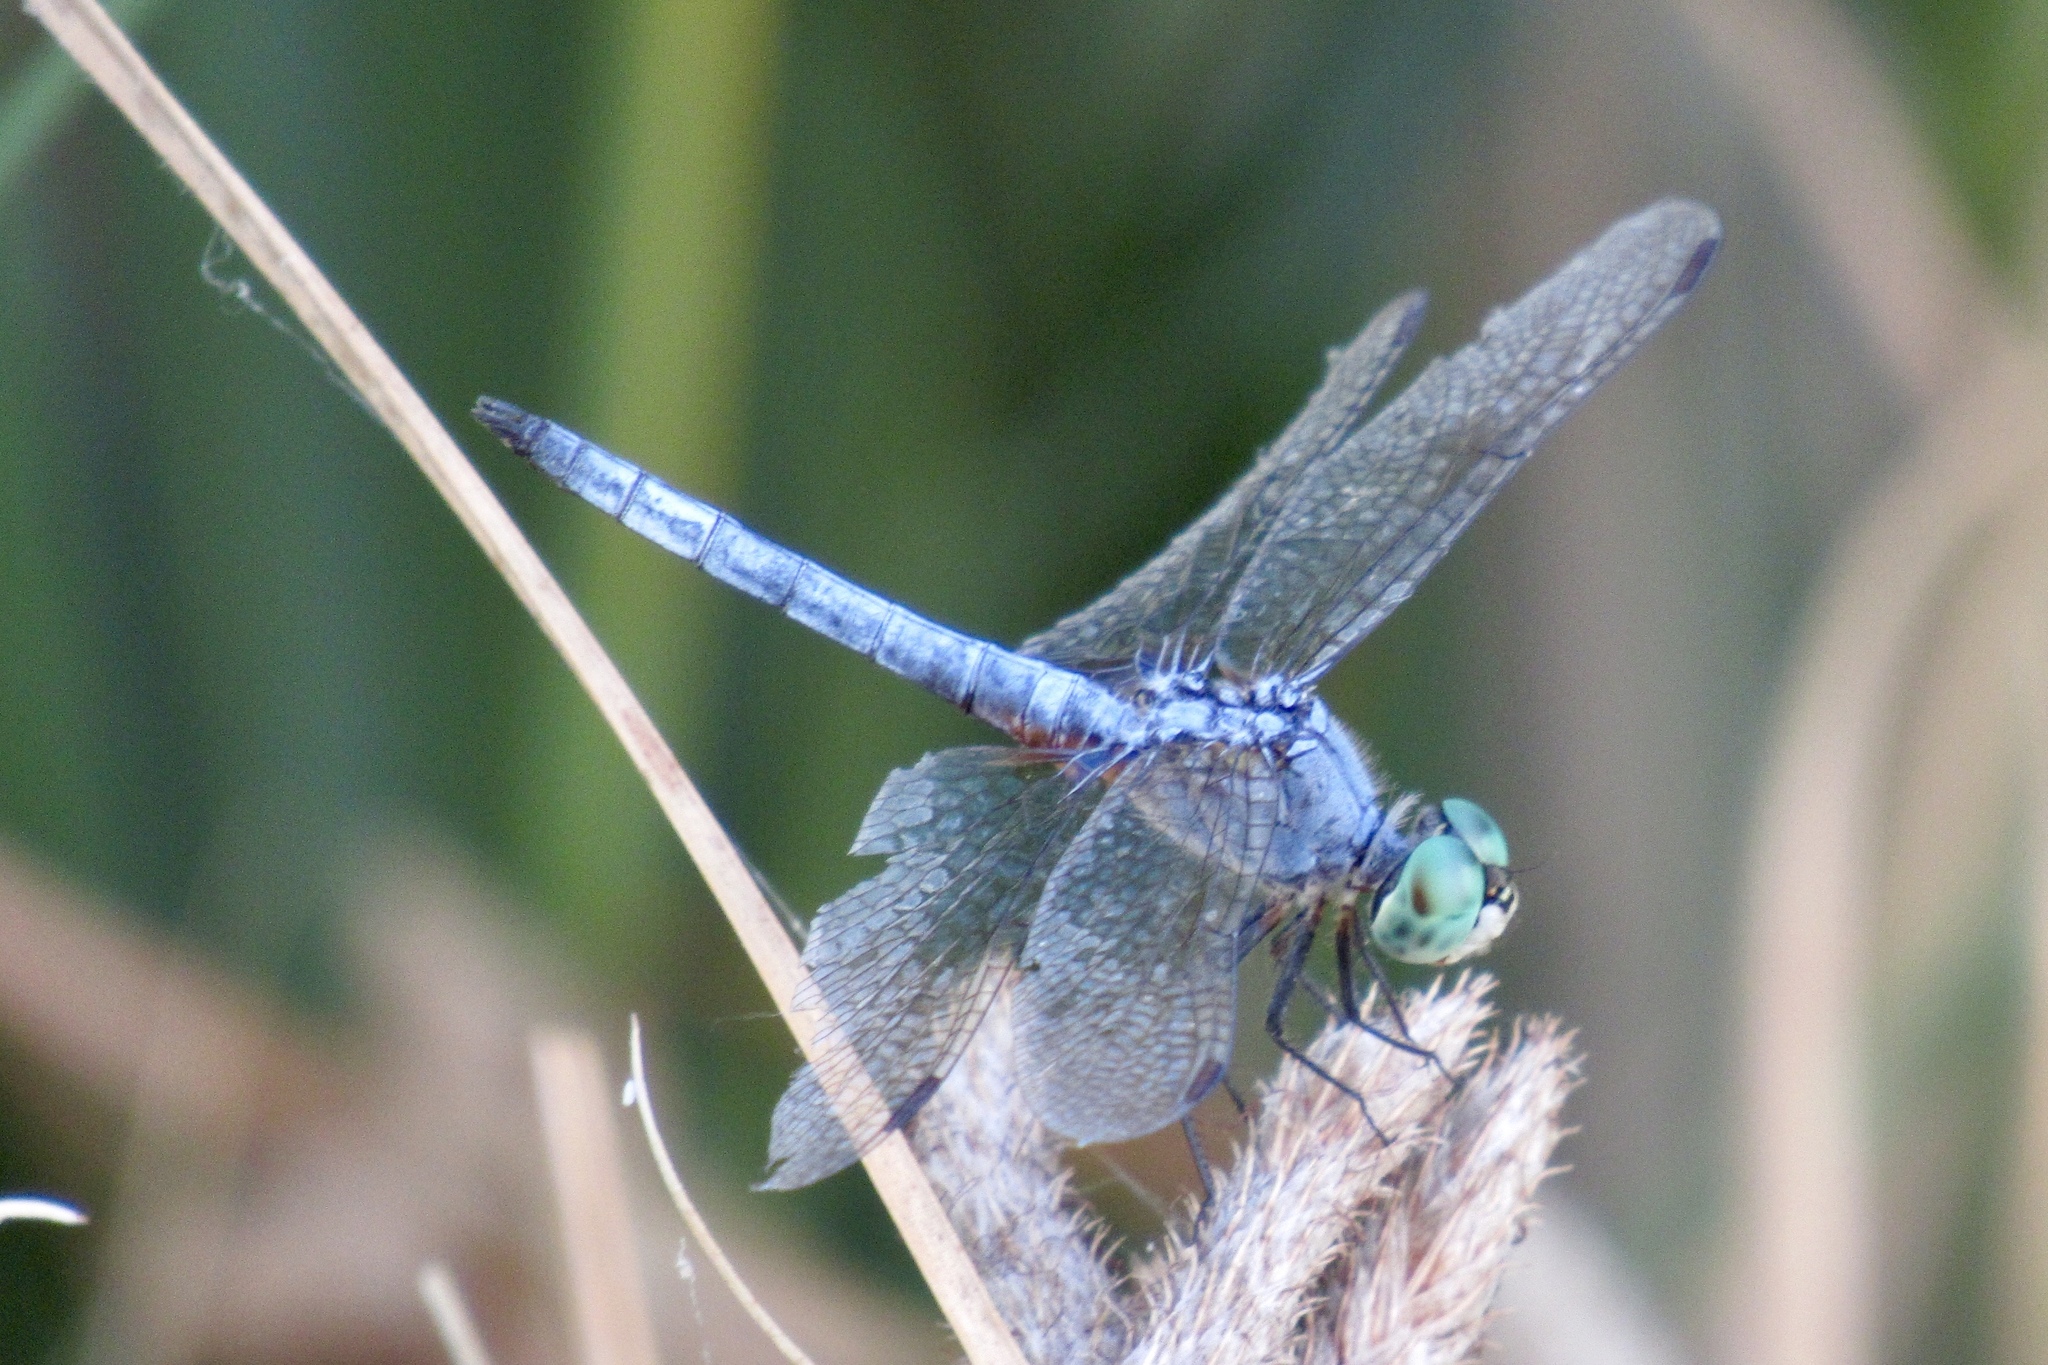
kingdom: Animalia
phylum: Arthropoda
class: Insecta
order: Odonata
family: Libellulidae
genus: Pachydiplax
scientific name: Pachydiplax longipennis
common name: Blue dasher
